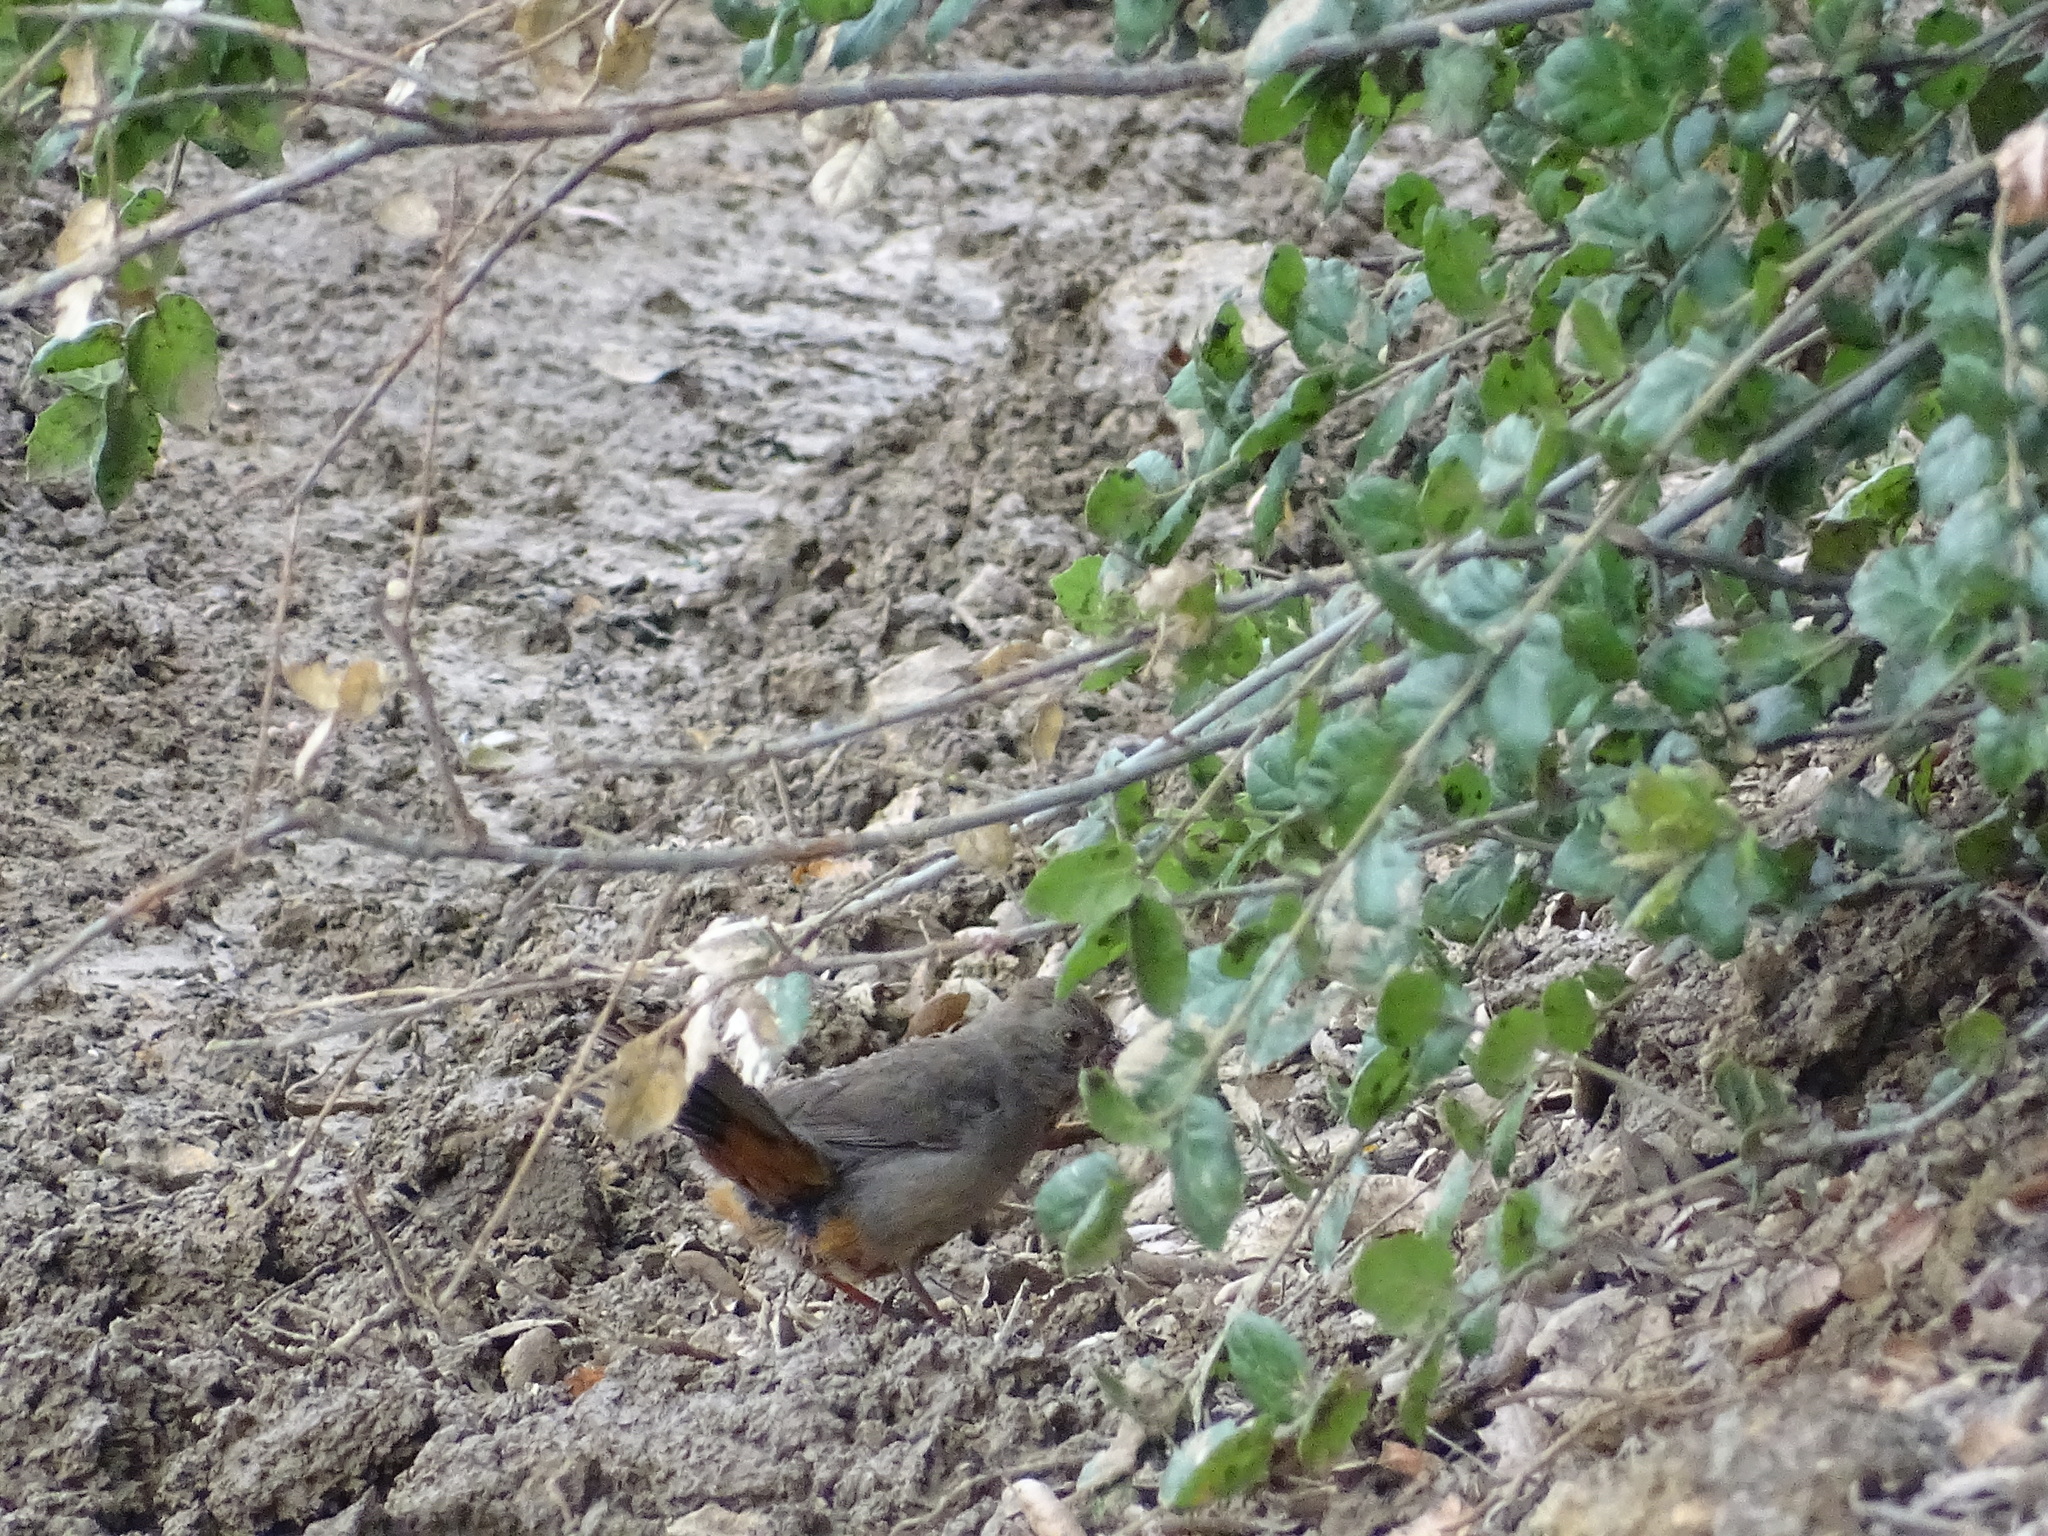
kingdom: Animalia
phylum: Chordata
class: Aves
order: Passeriformes
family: Passerellidae
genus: Melozone
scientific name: Melozone crissalis
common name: California towhee
